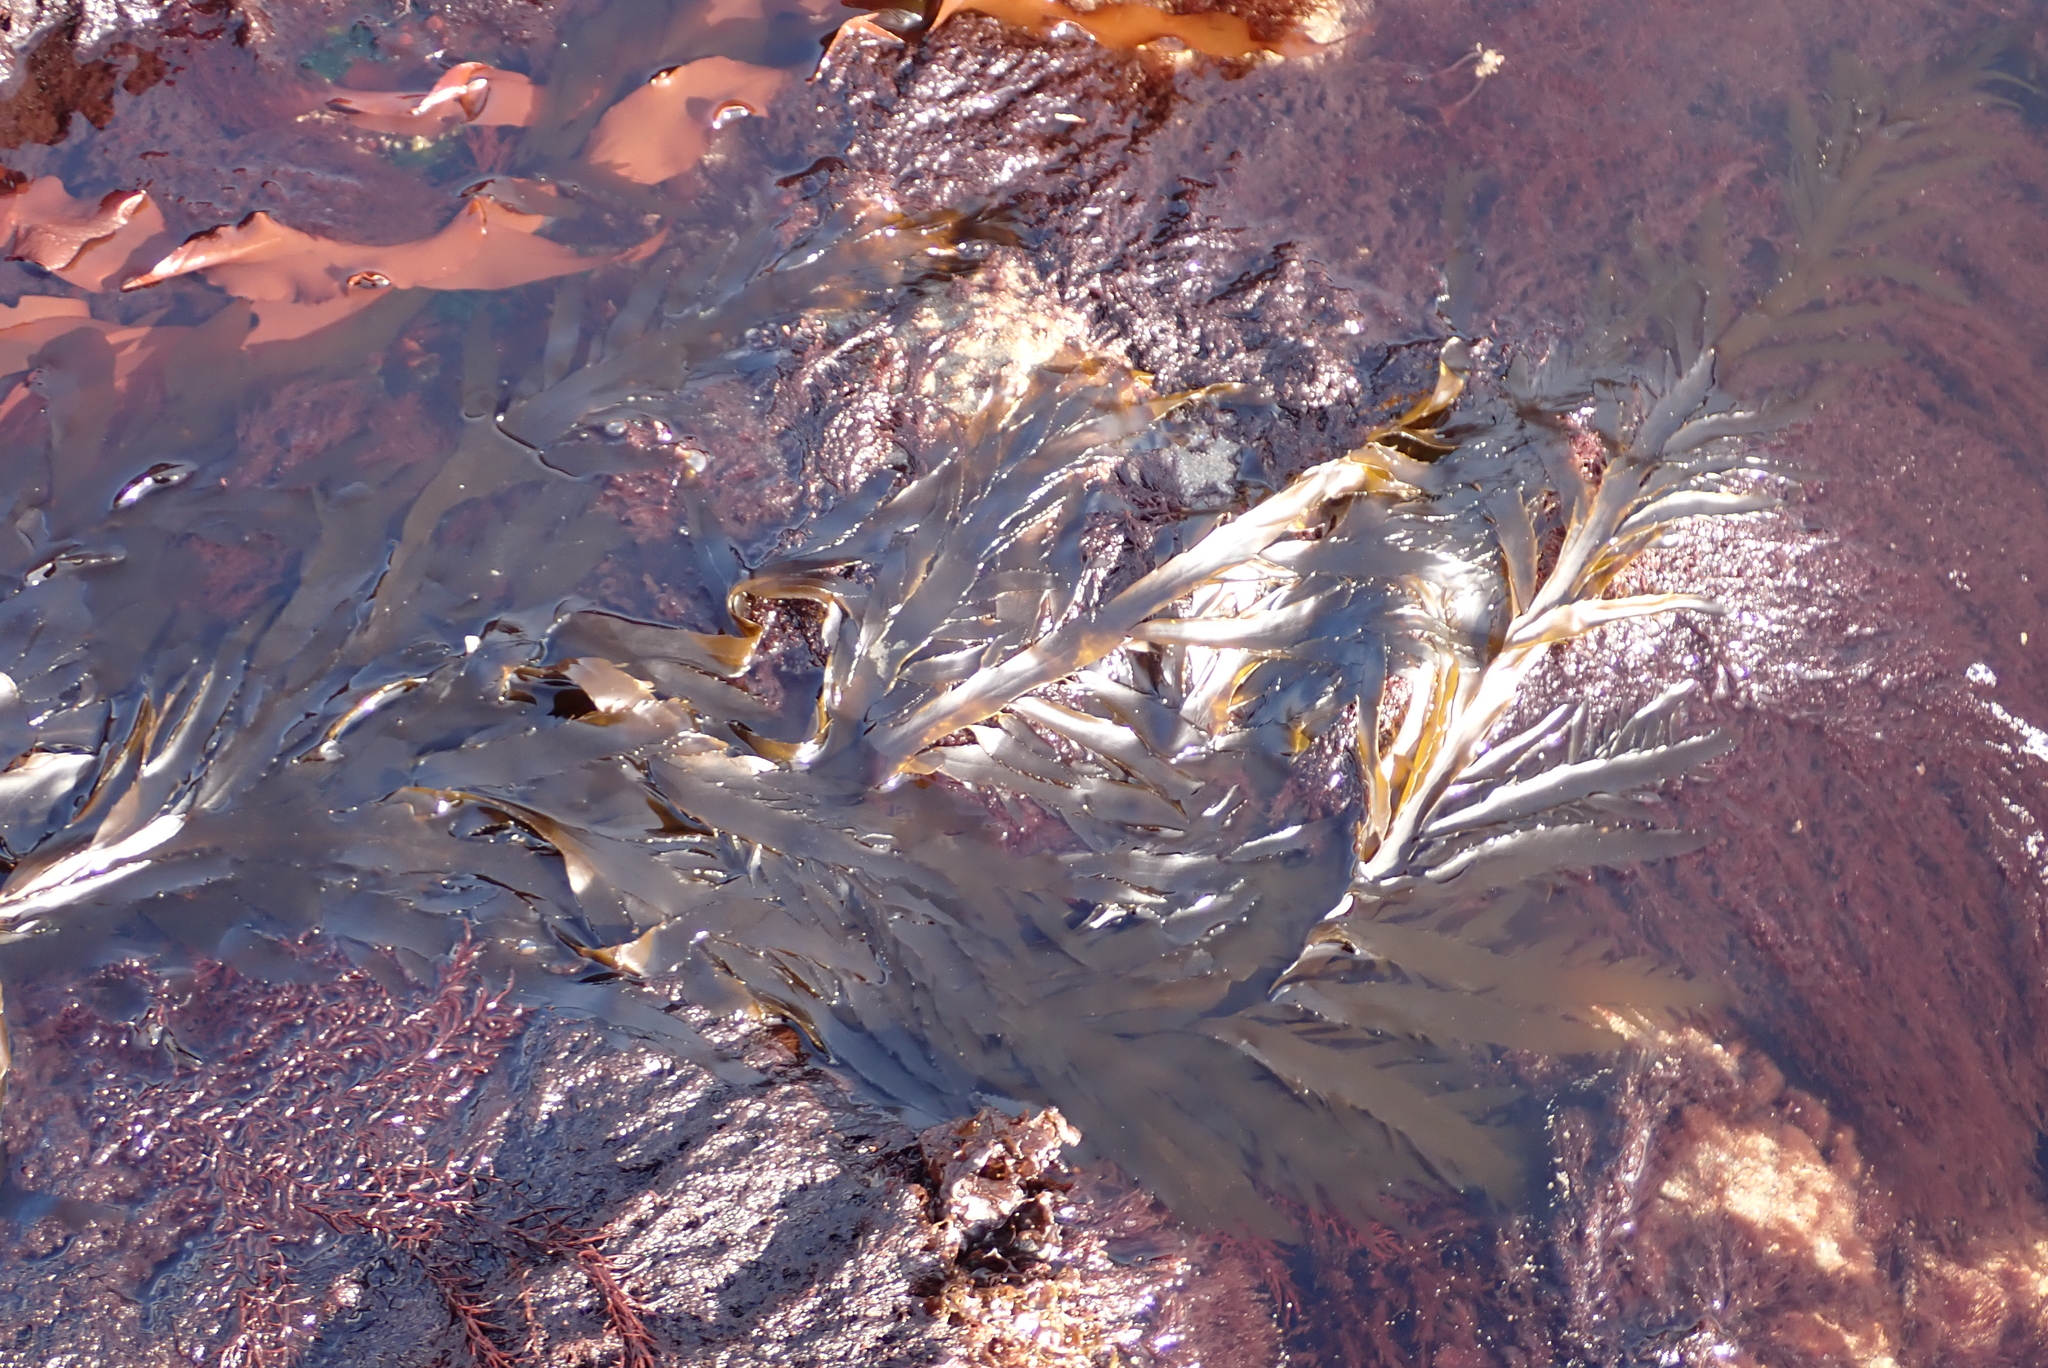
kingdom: Chromista
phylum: Ochrophyta
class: Phaeophyceae
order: Desmarestiales
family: Desmarestiaceae
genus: Desmarestia
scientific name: Desmarestia ligulata
